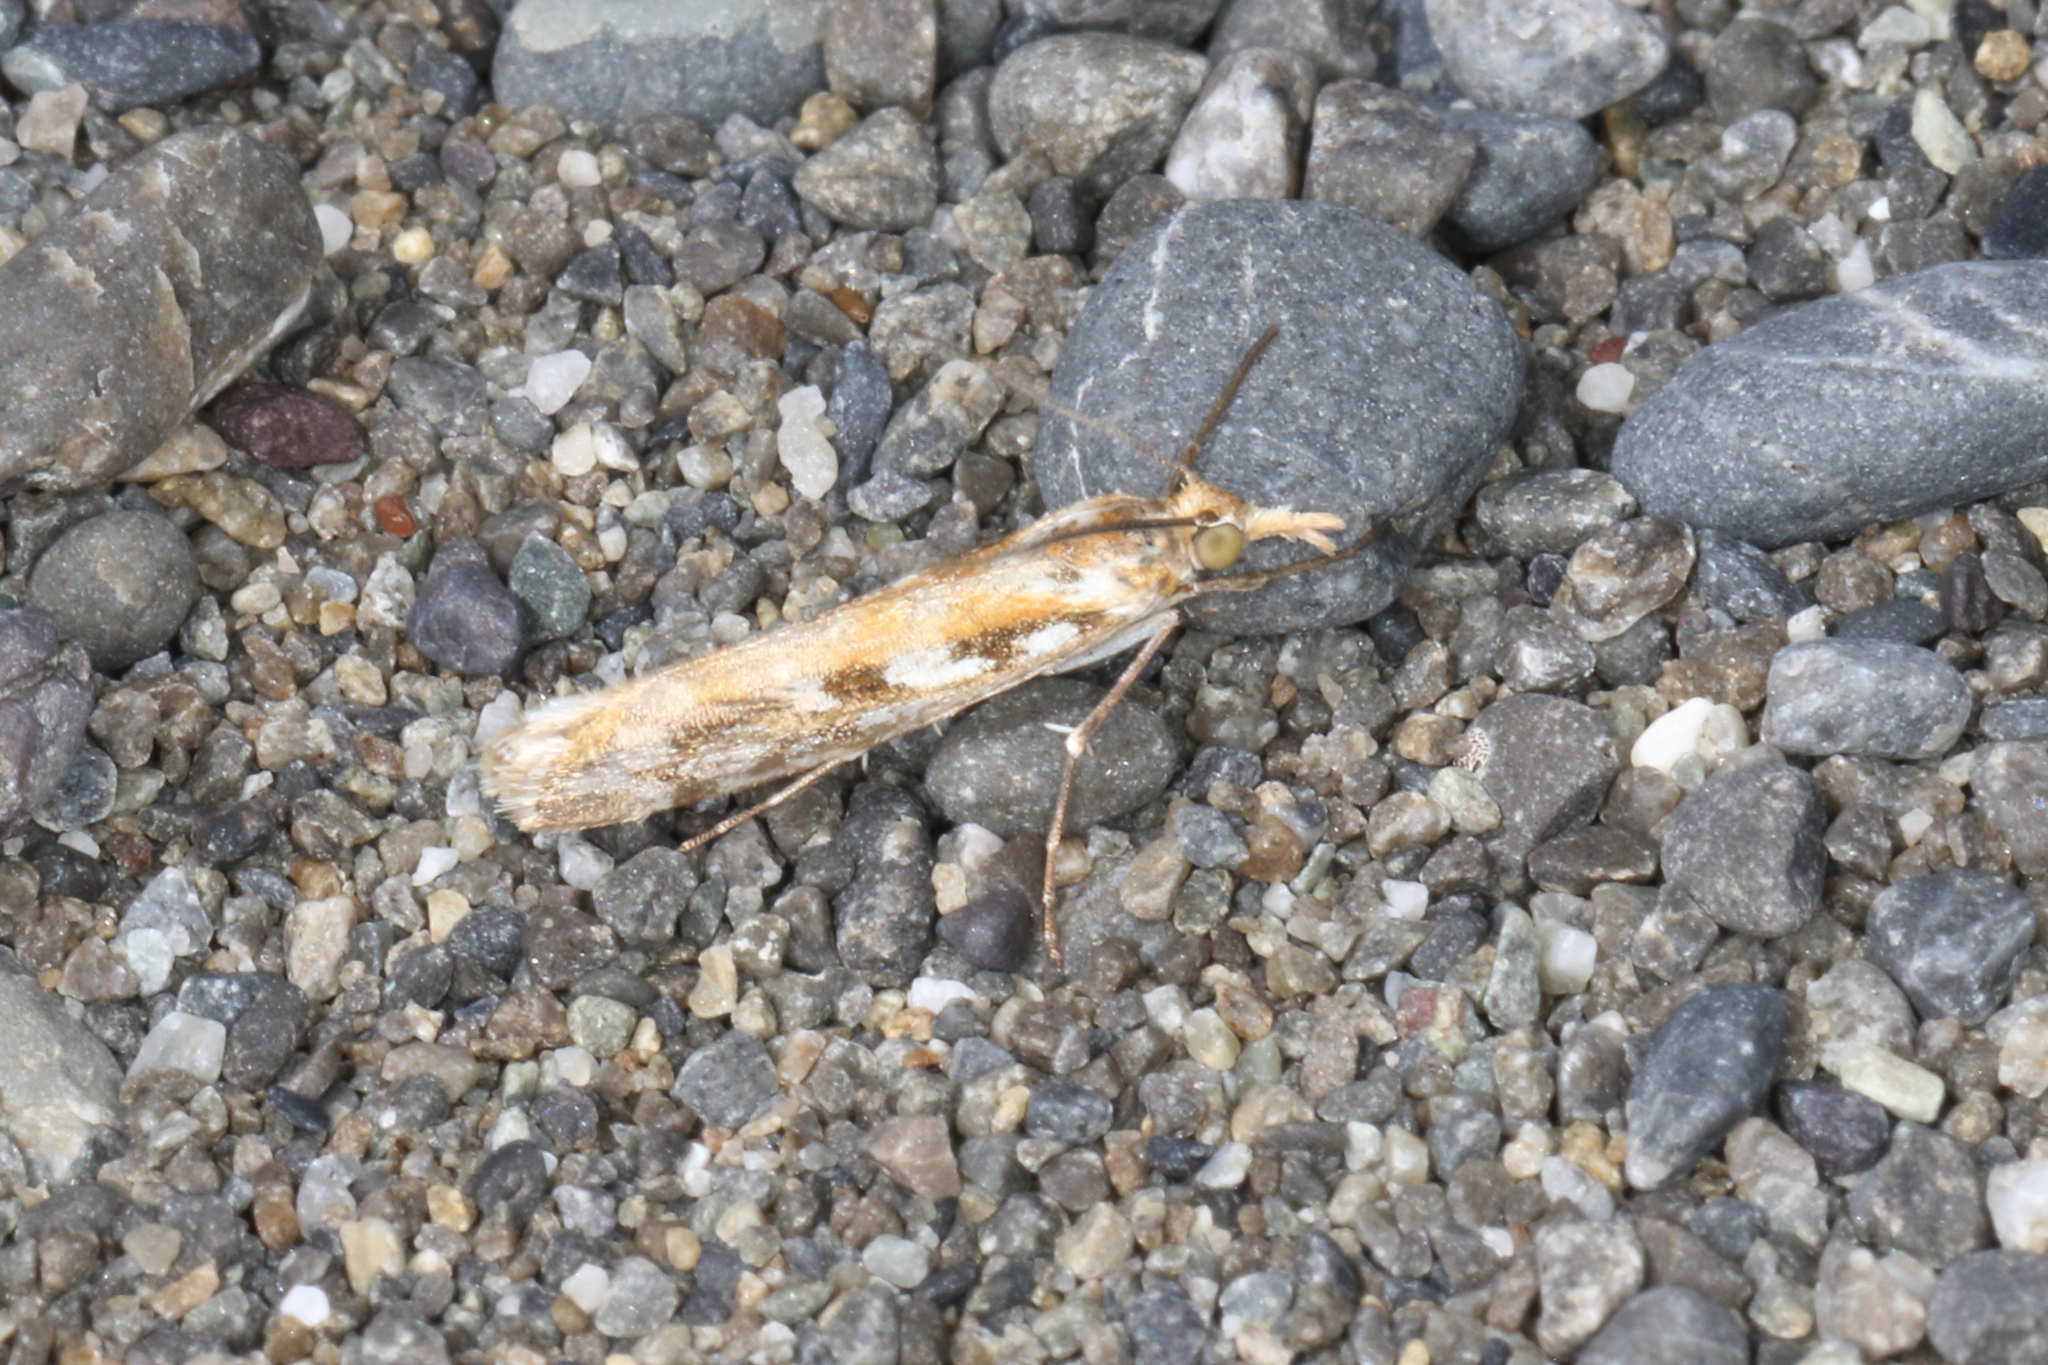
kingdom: Animalia
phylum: Arthropoda
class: Insecta
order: Lepidoptera
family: Crambidae
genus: Orocrambus
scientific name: Orocrambus xanthogrammus
